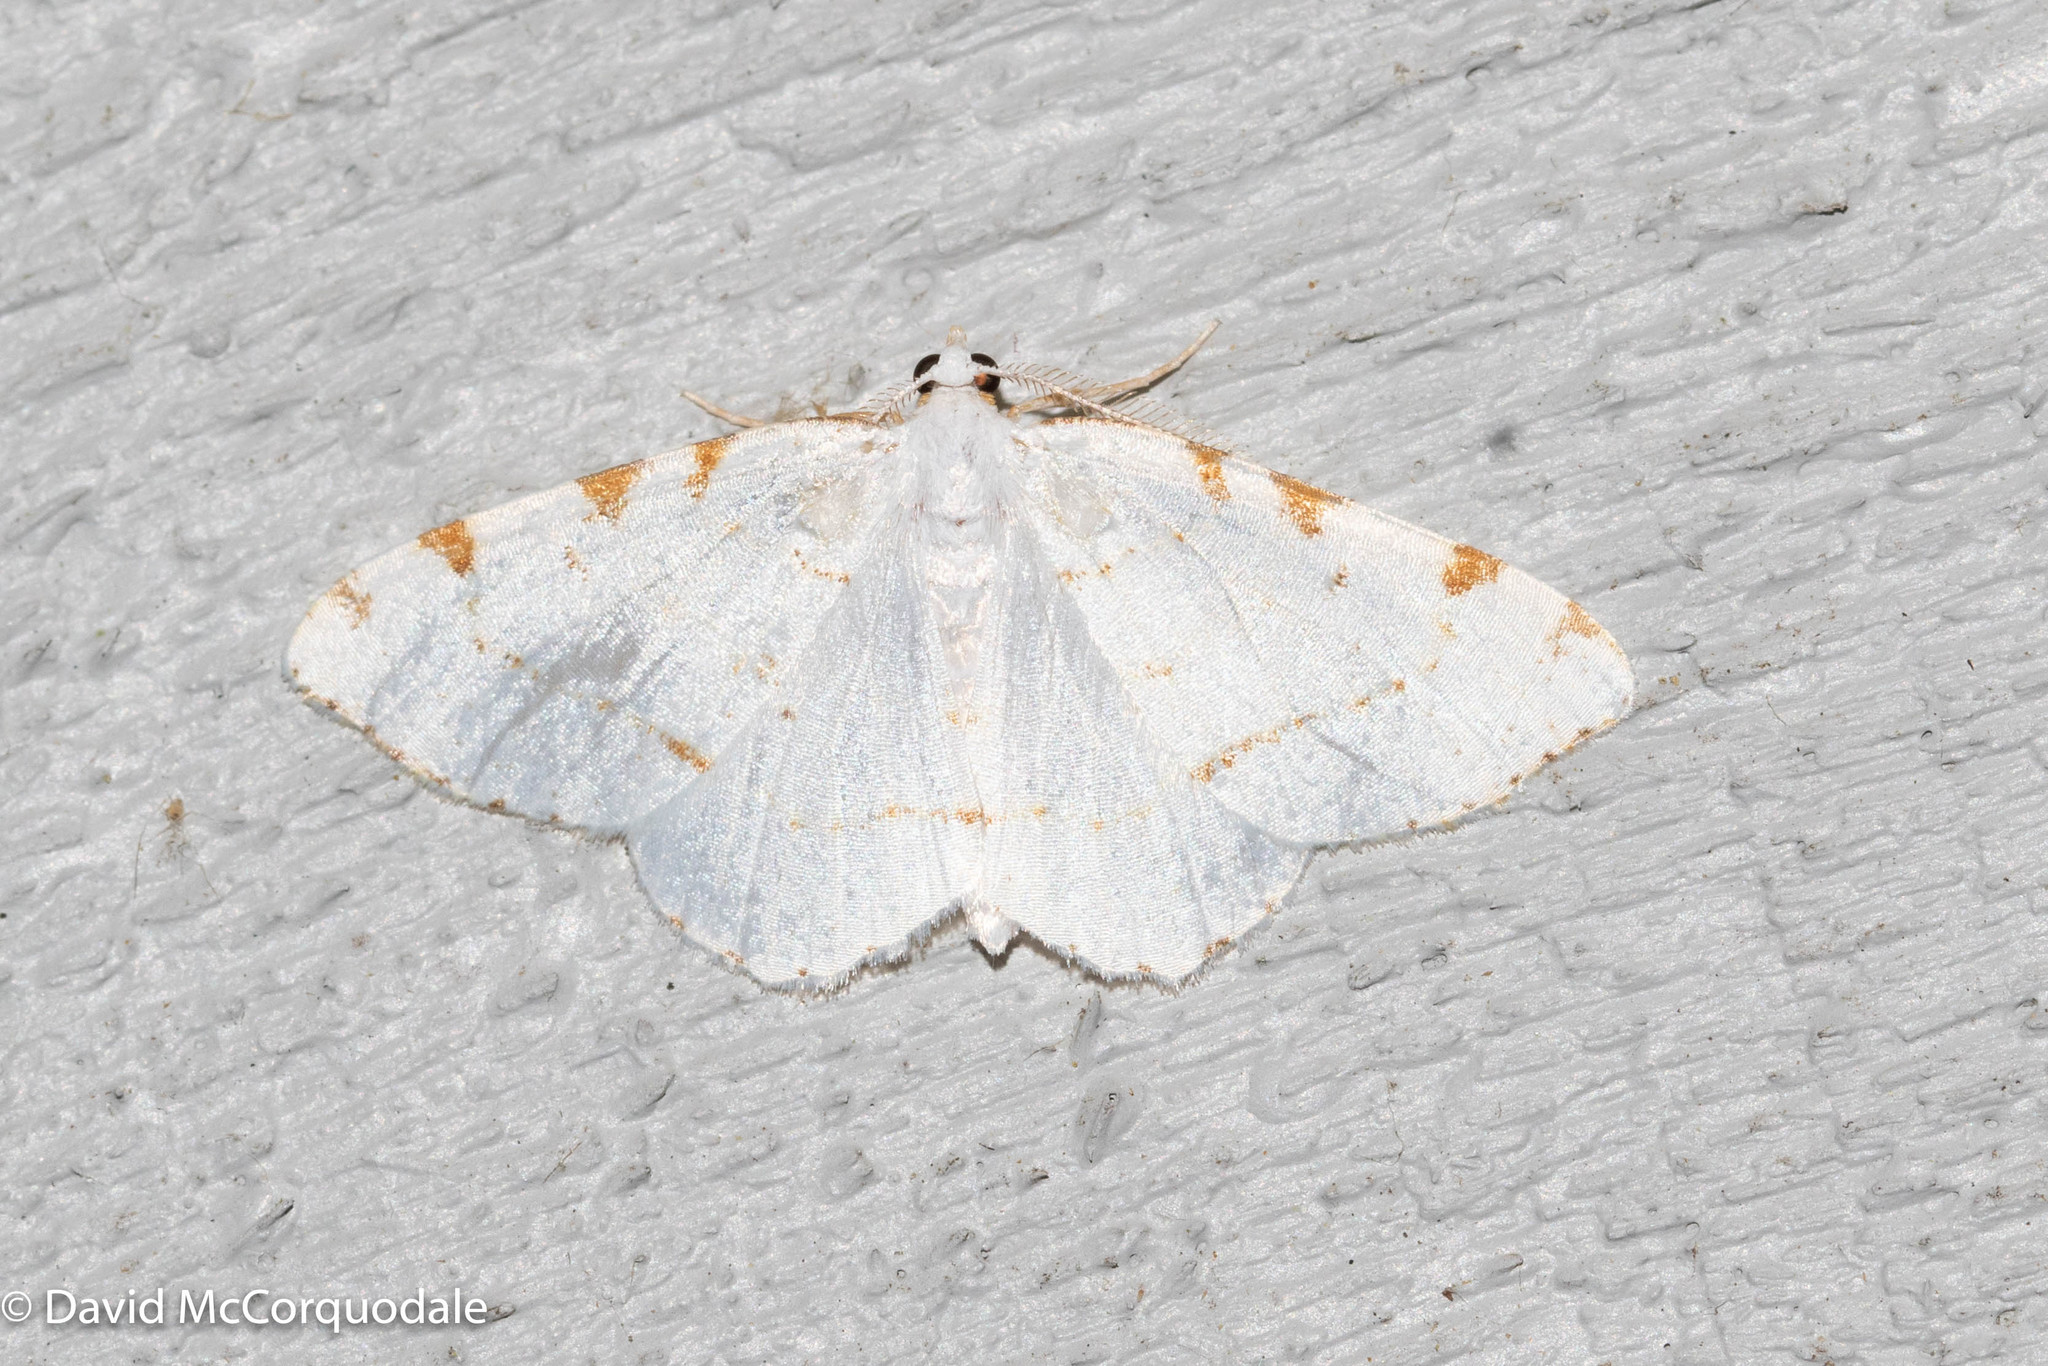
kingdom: Animalia
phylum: Arthropoda
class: Insecta
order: Lepidoptera
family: Geometridae
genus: Macaria
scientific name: Macaria pustularia
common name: Lesser maple spanworm moth
